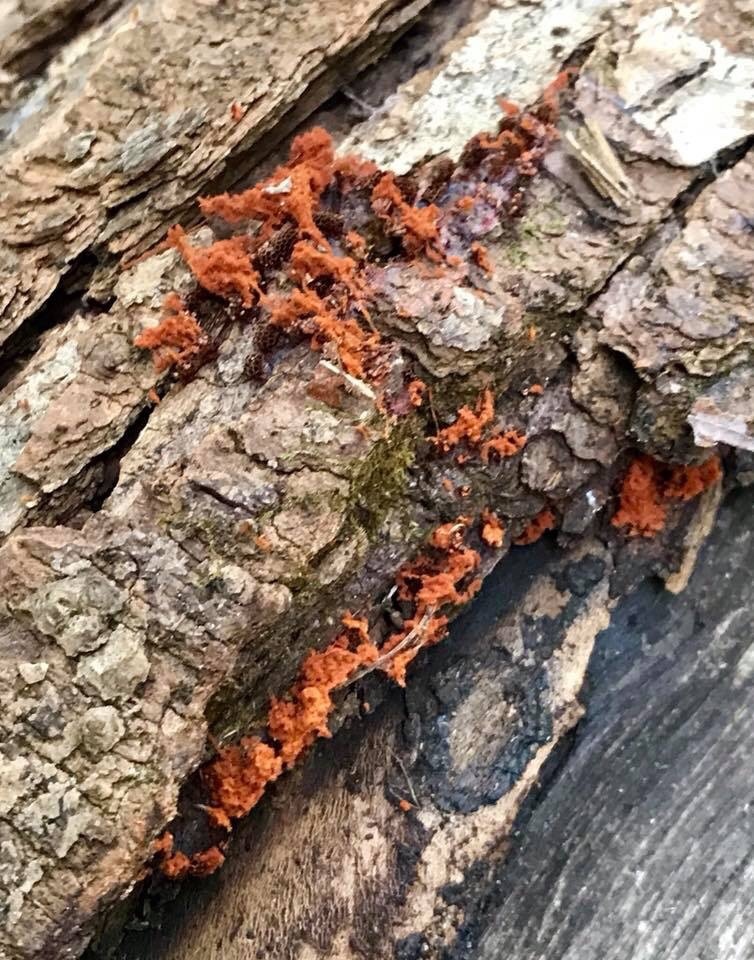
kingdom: Protozoa
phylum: Mycetozoa
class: Myxomycetes
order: Trichiales
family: Trichiaceae
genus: Metatrichia
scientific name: Metatrichia vesparia
